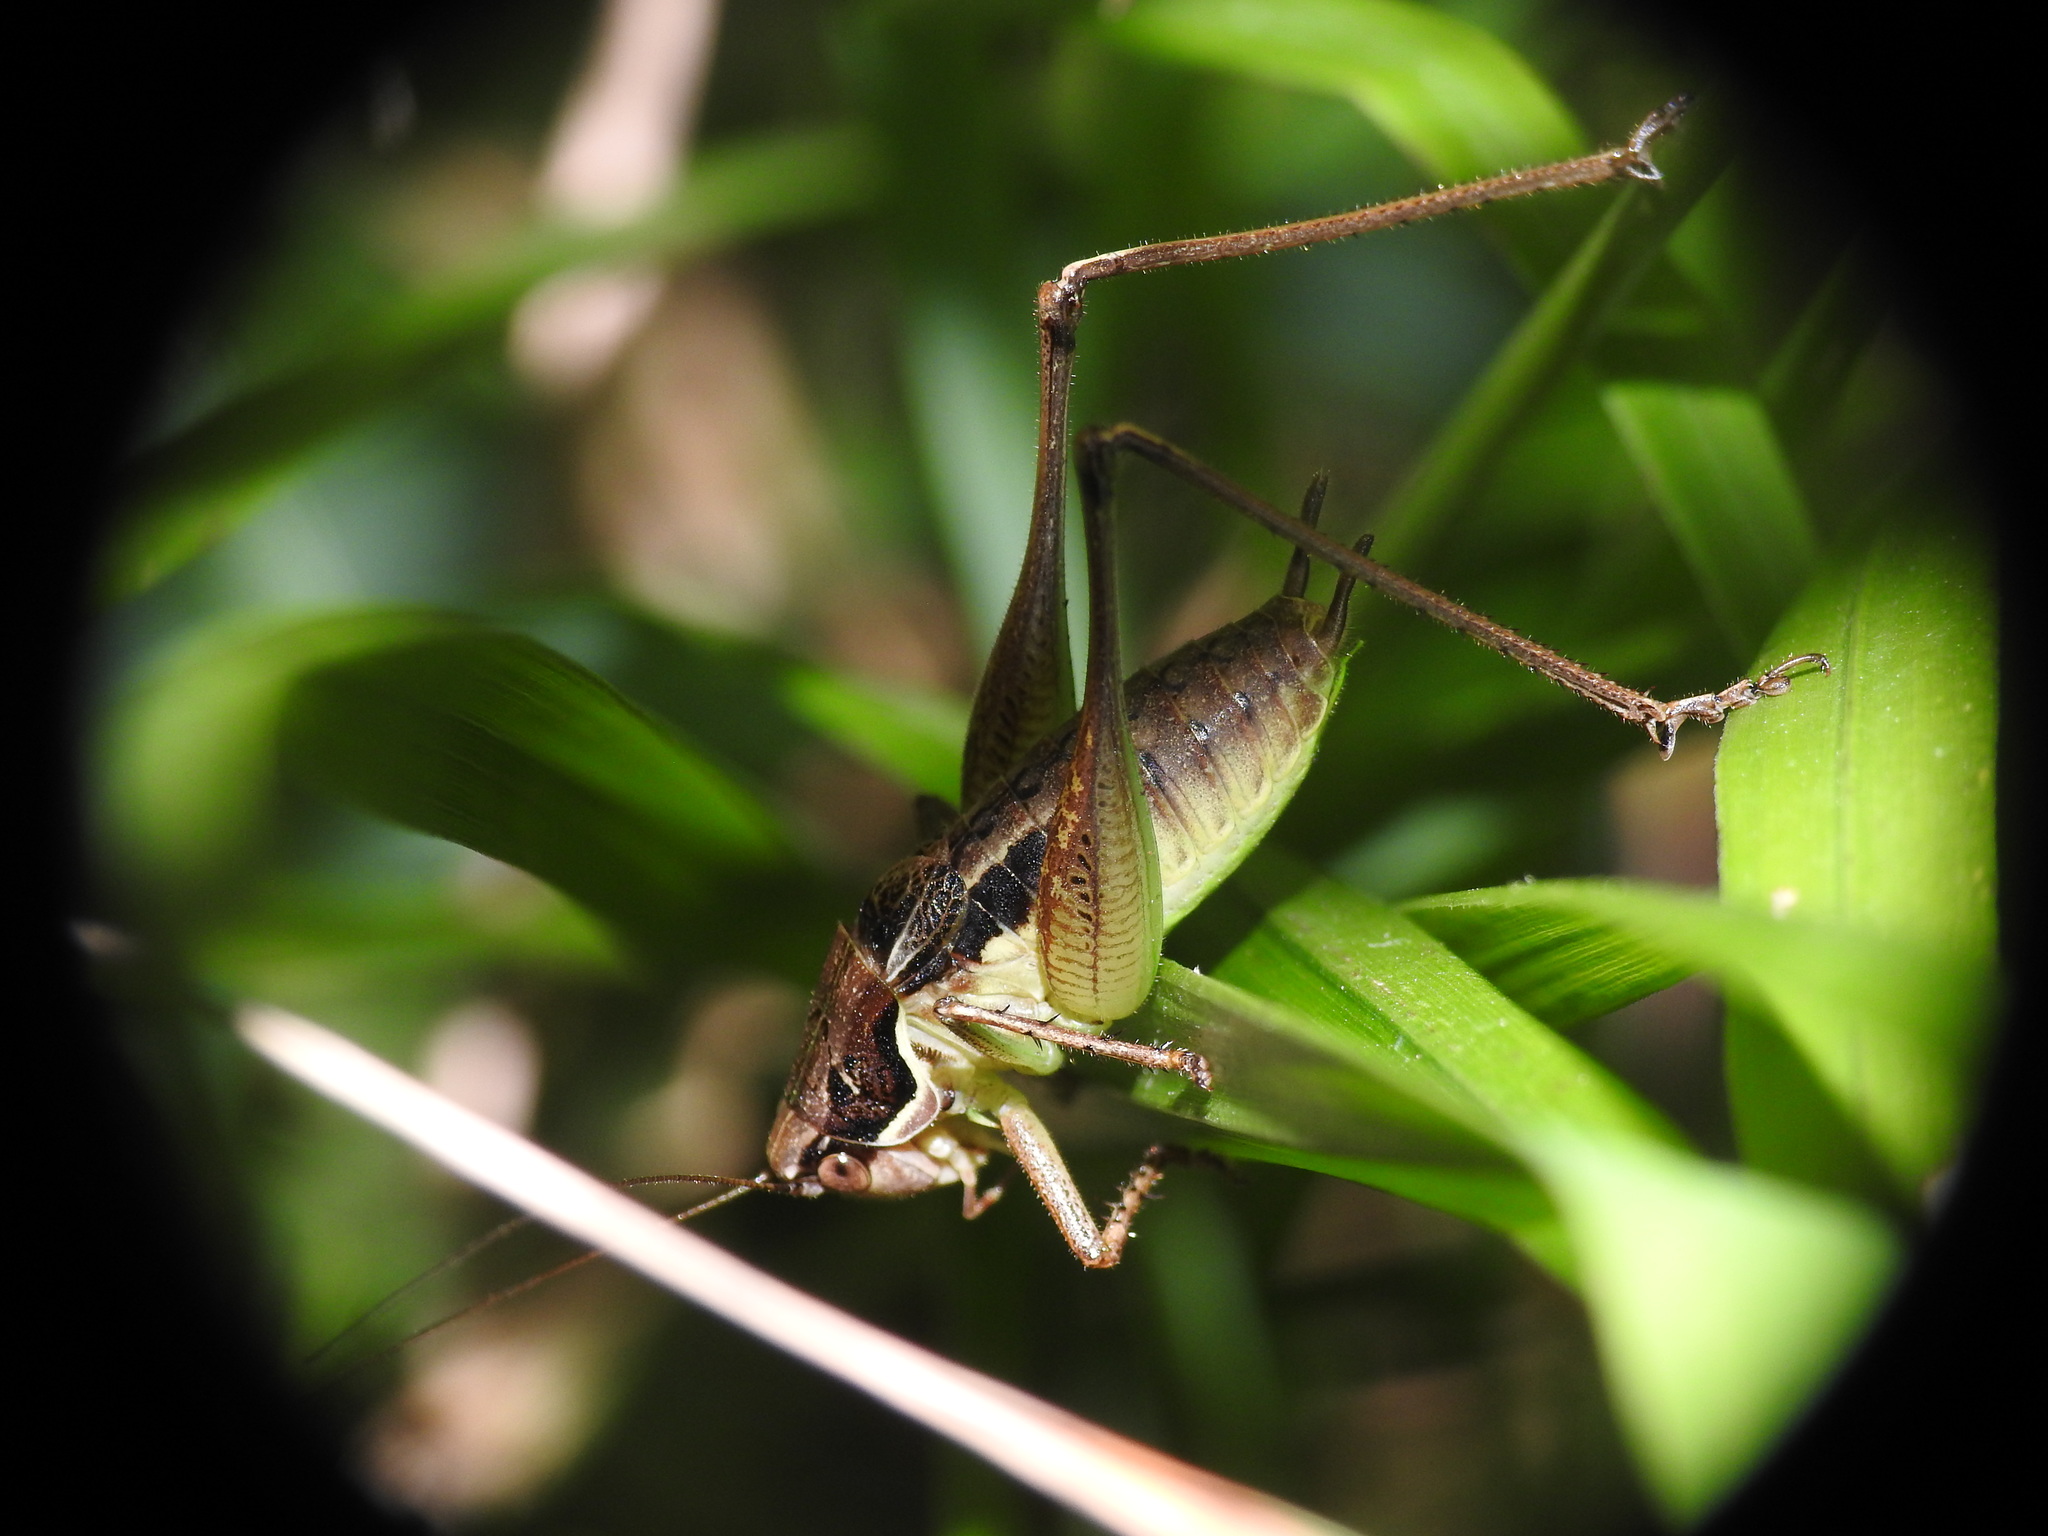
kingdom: Animalia
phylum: Arthropoda
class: Insecta
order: Orthoptera
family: Tettigoniidae
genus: Pachytrachis
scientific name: Pachytrachis gracilis
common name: Graceful bush-cricket
